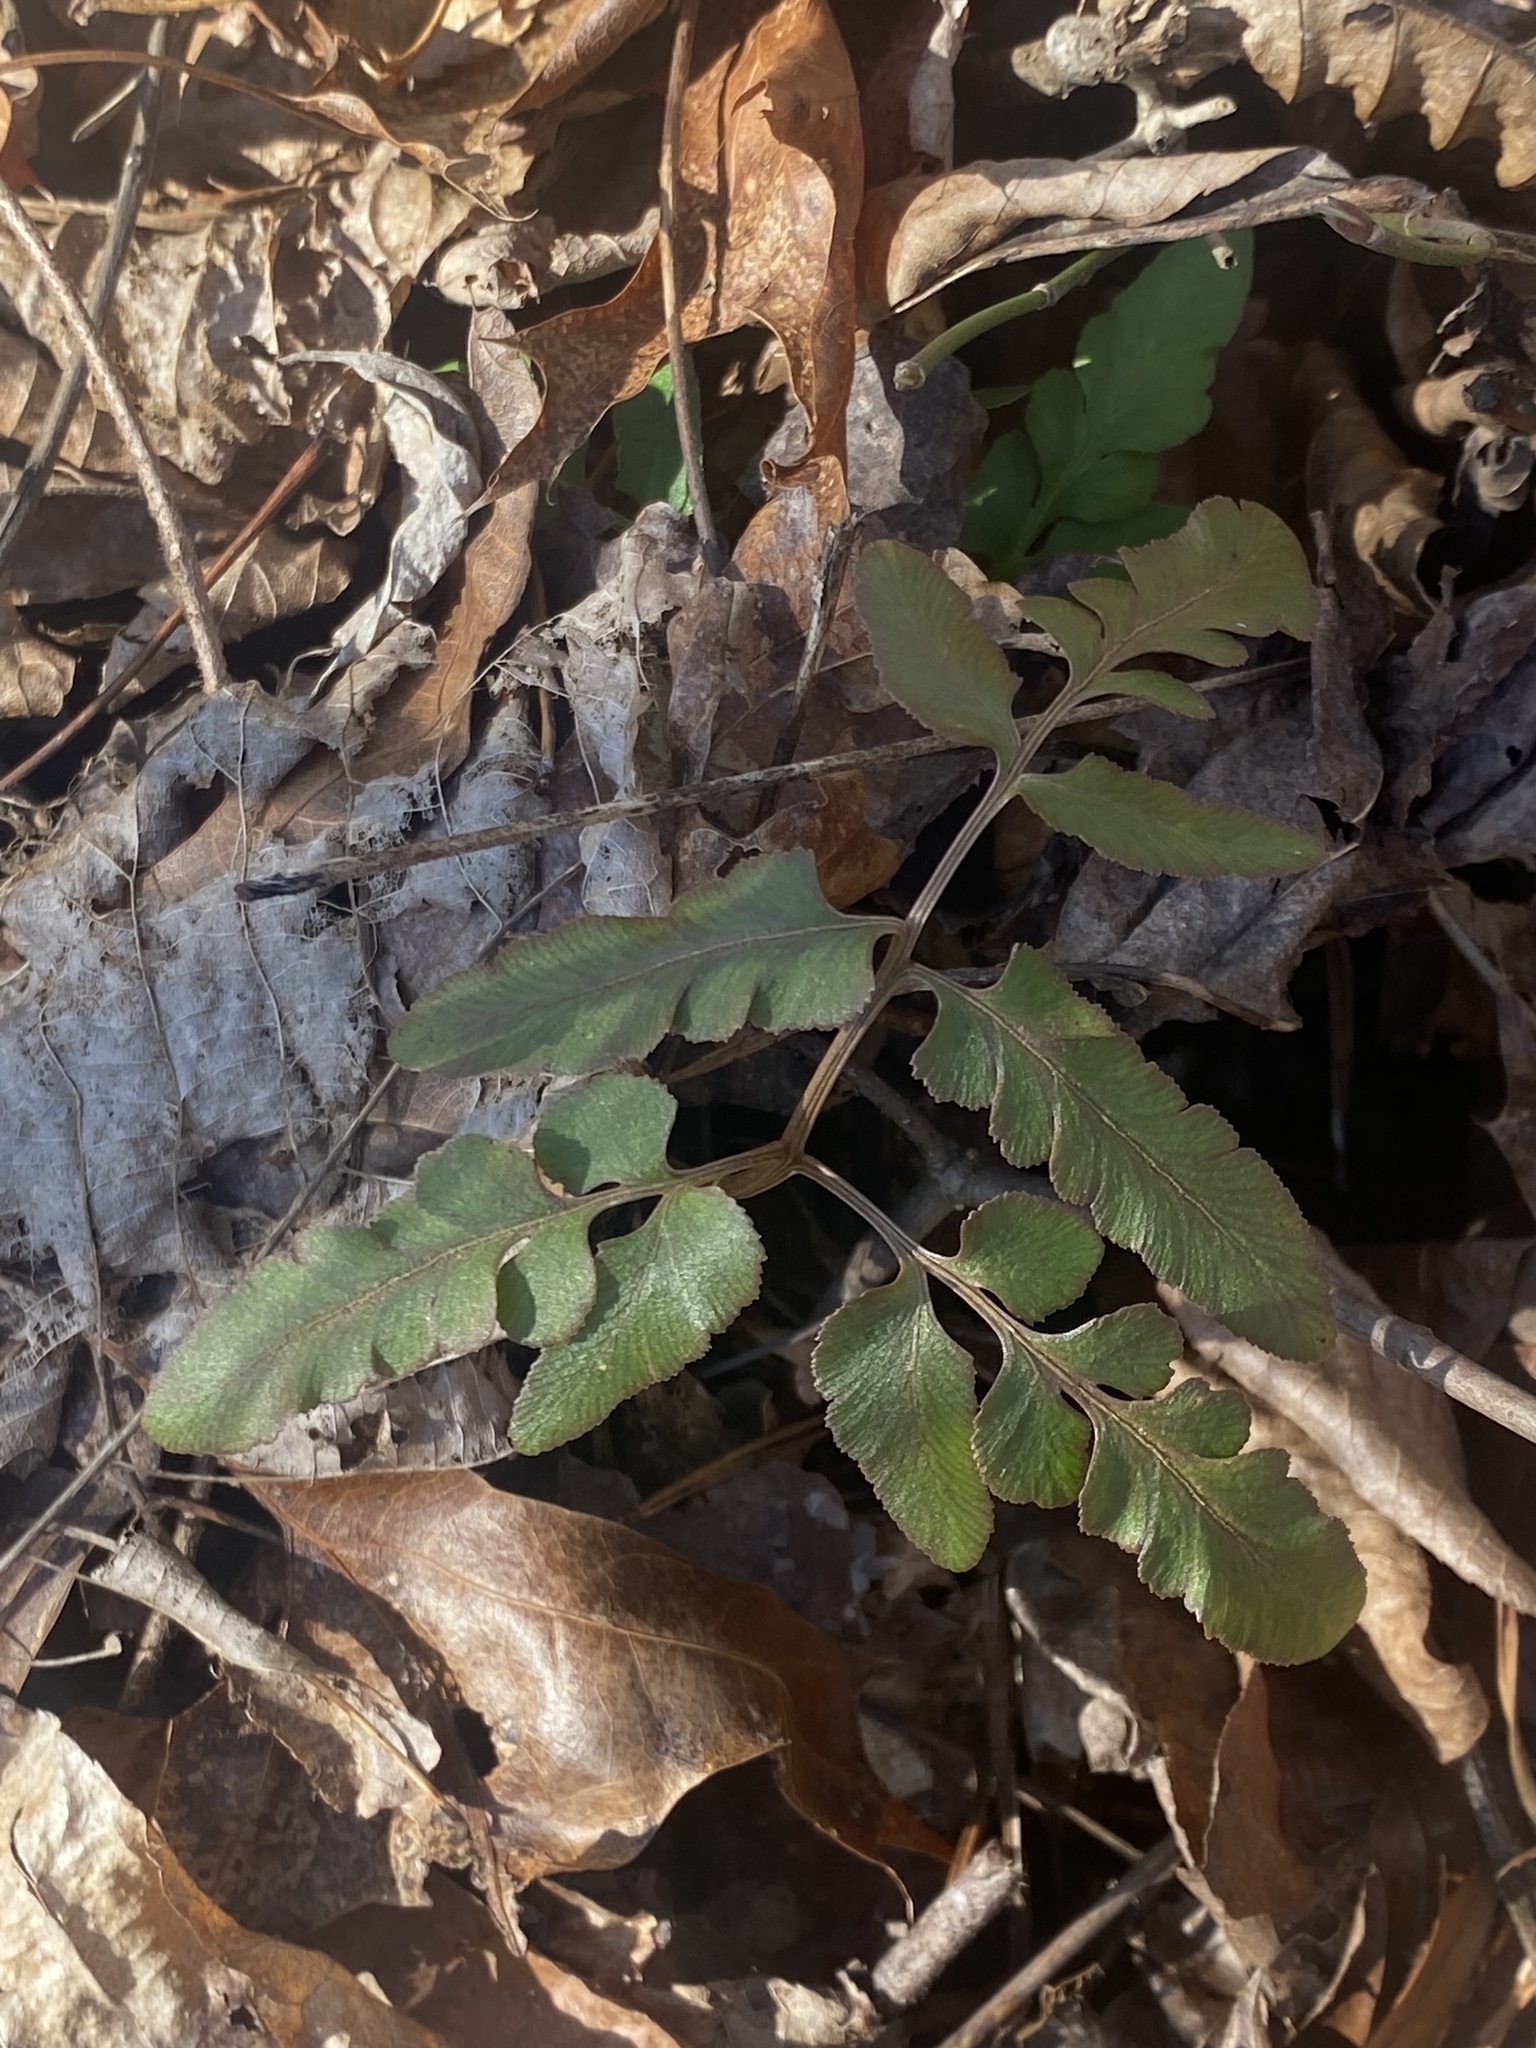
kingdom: Plantae
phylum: Tracheophyta
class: Polypodiopsida
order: Ophioglossales
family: Ophioglossaceae
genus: Sceptridium
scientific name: Sceptridium biternatum
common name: Sparse-lobed grapefern
